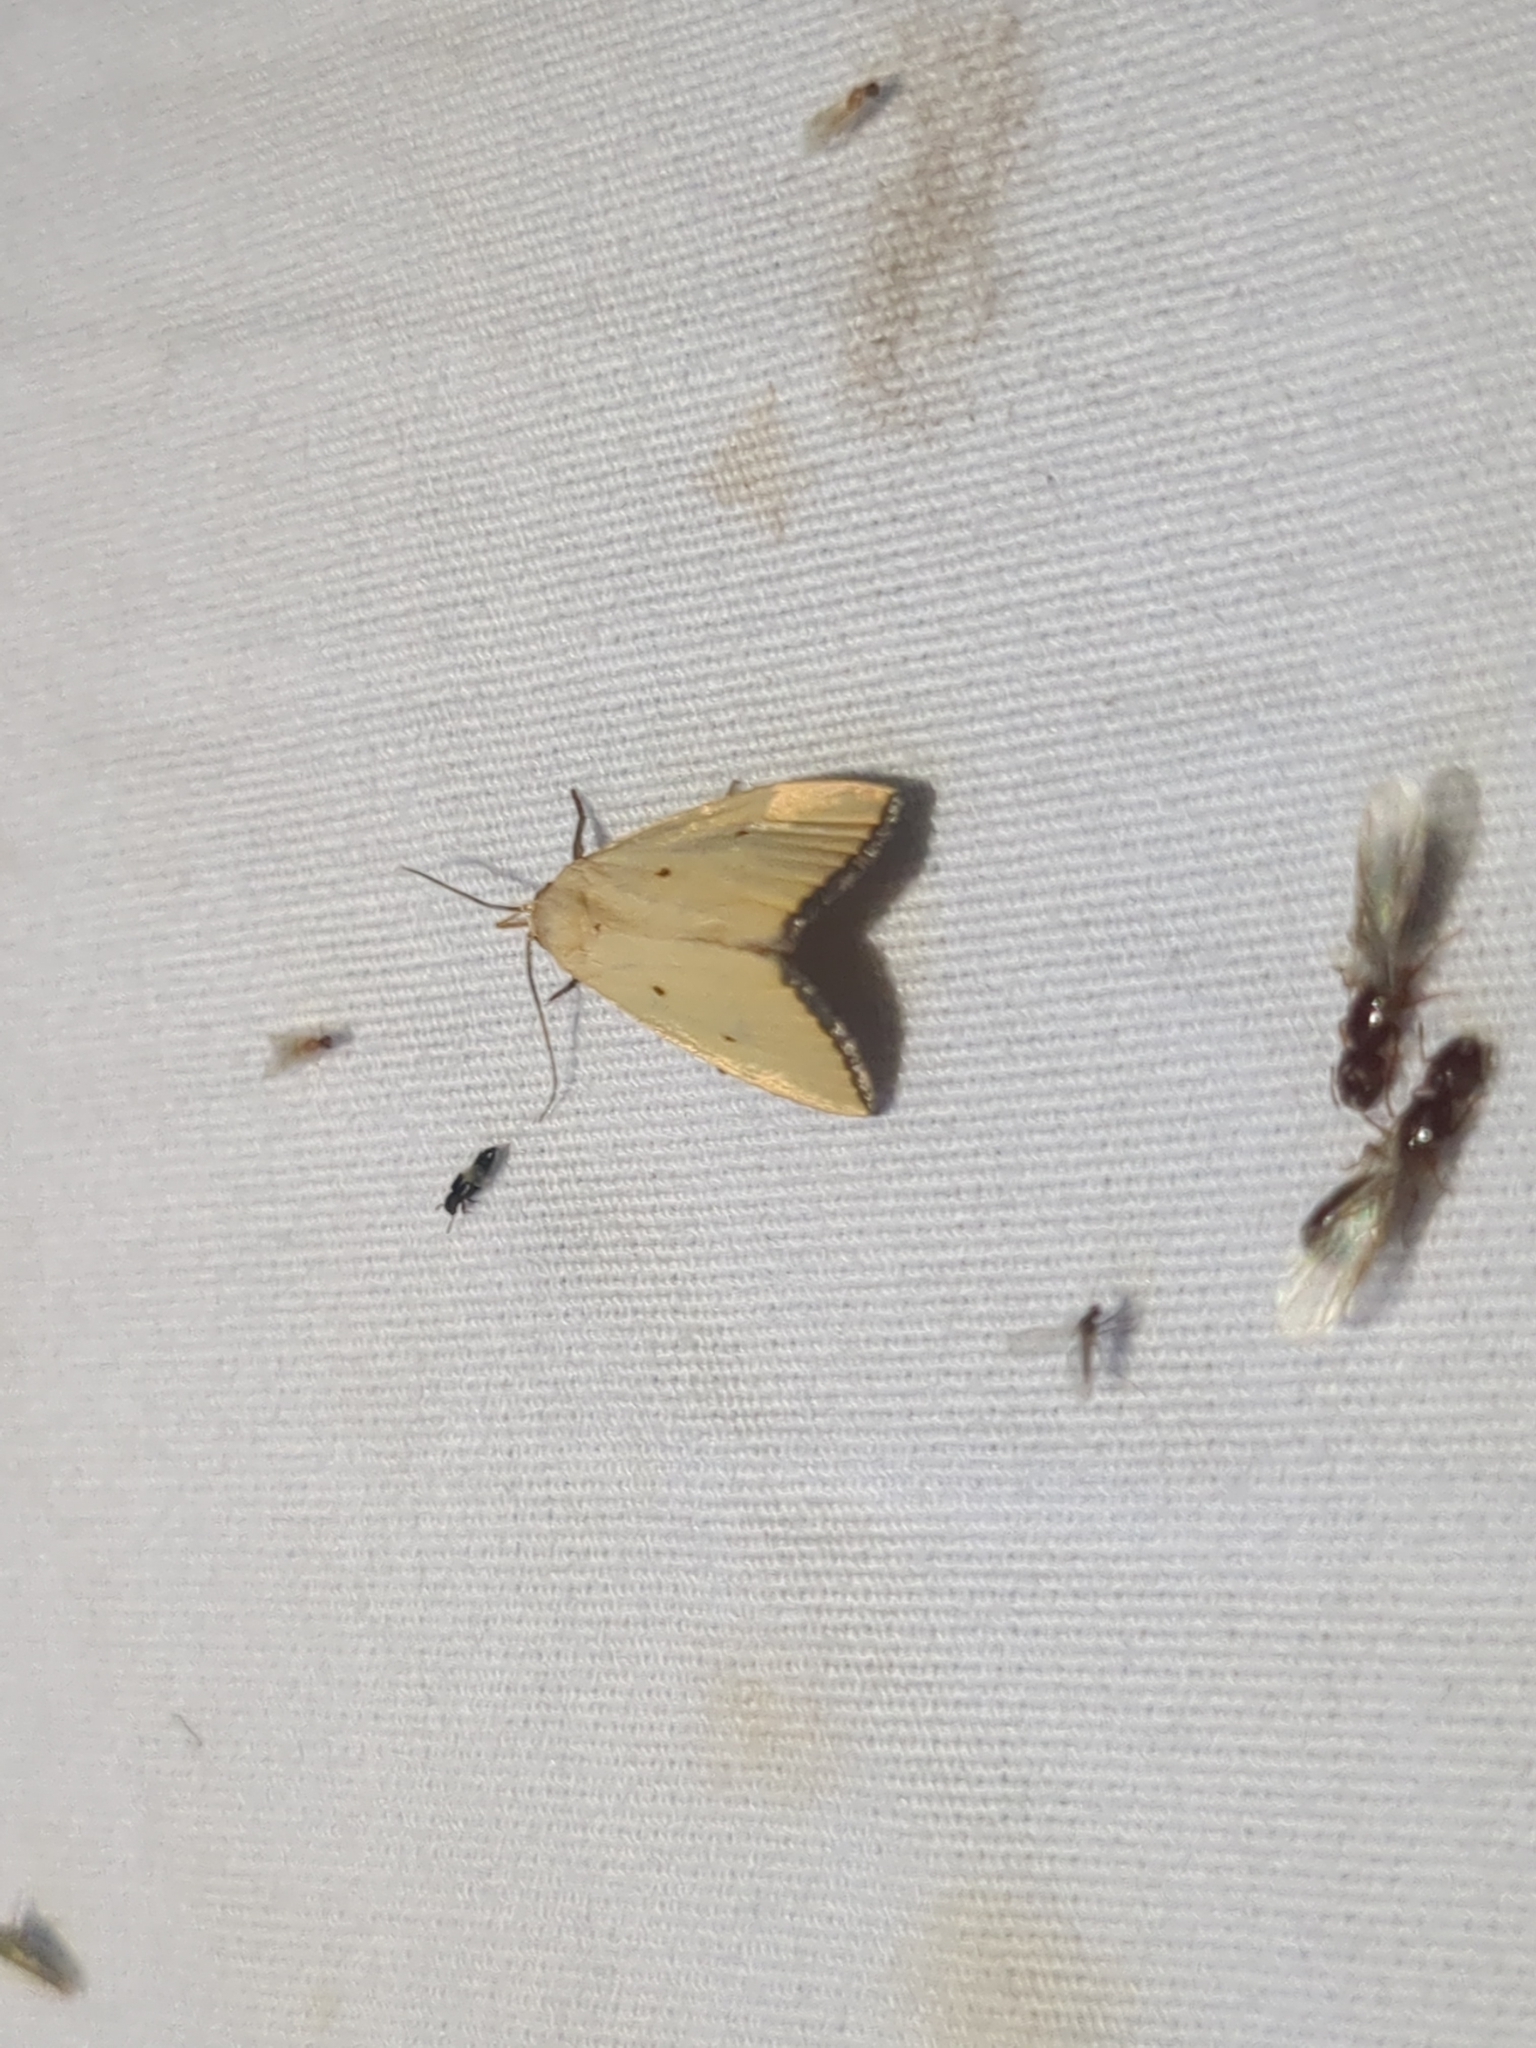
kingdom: Animalia
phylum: Arthropoda
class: Insecta
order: Lepidoptera
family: Noctuidae
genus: Marimatha
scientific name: Marimatha nigrofimbria
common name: Black-bordered lemon moth
